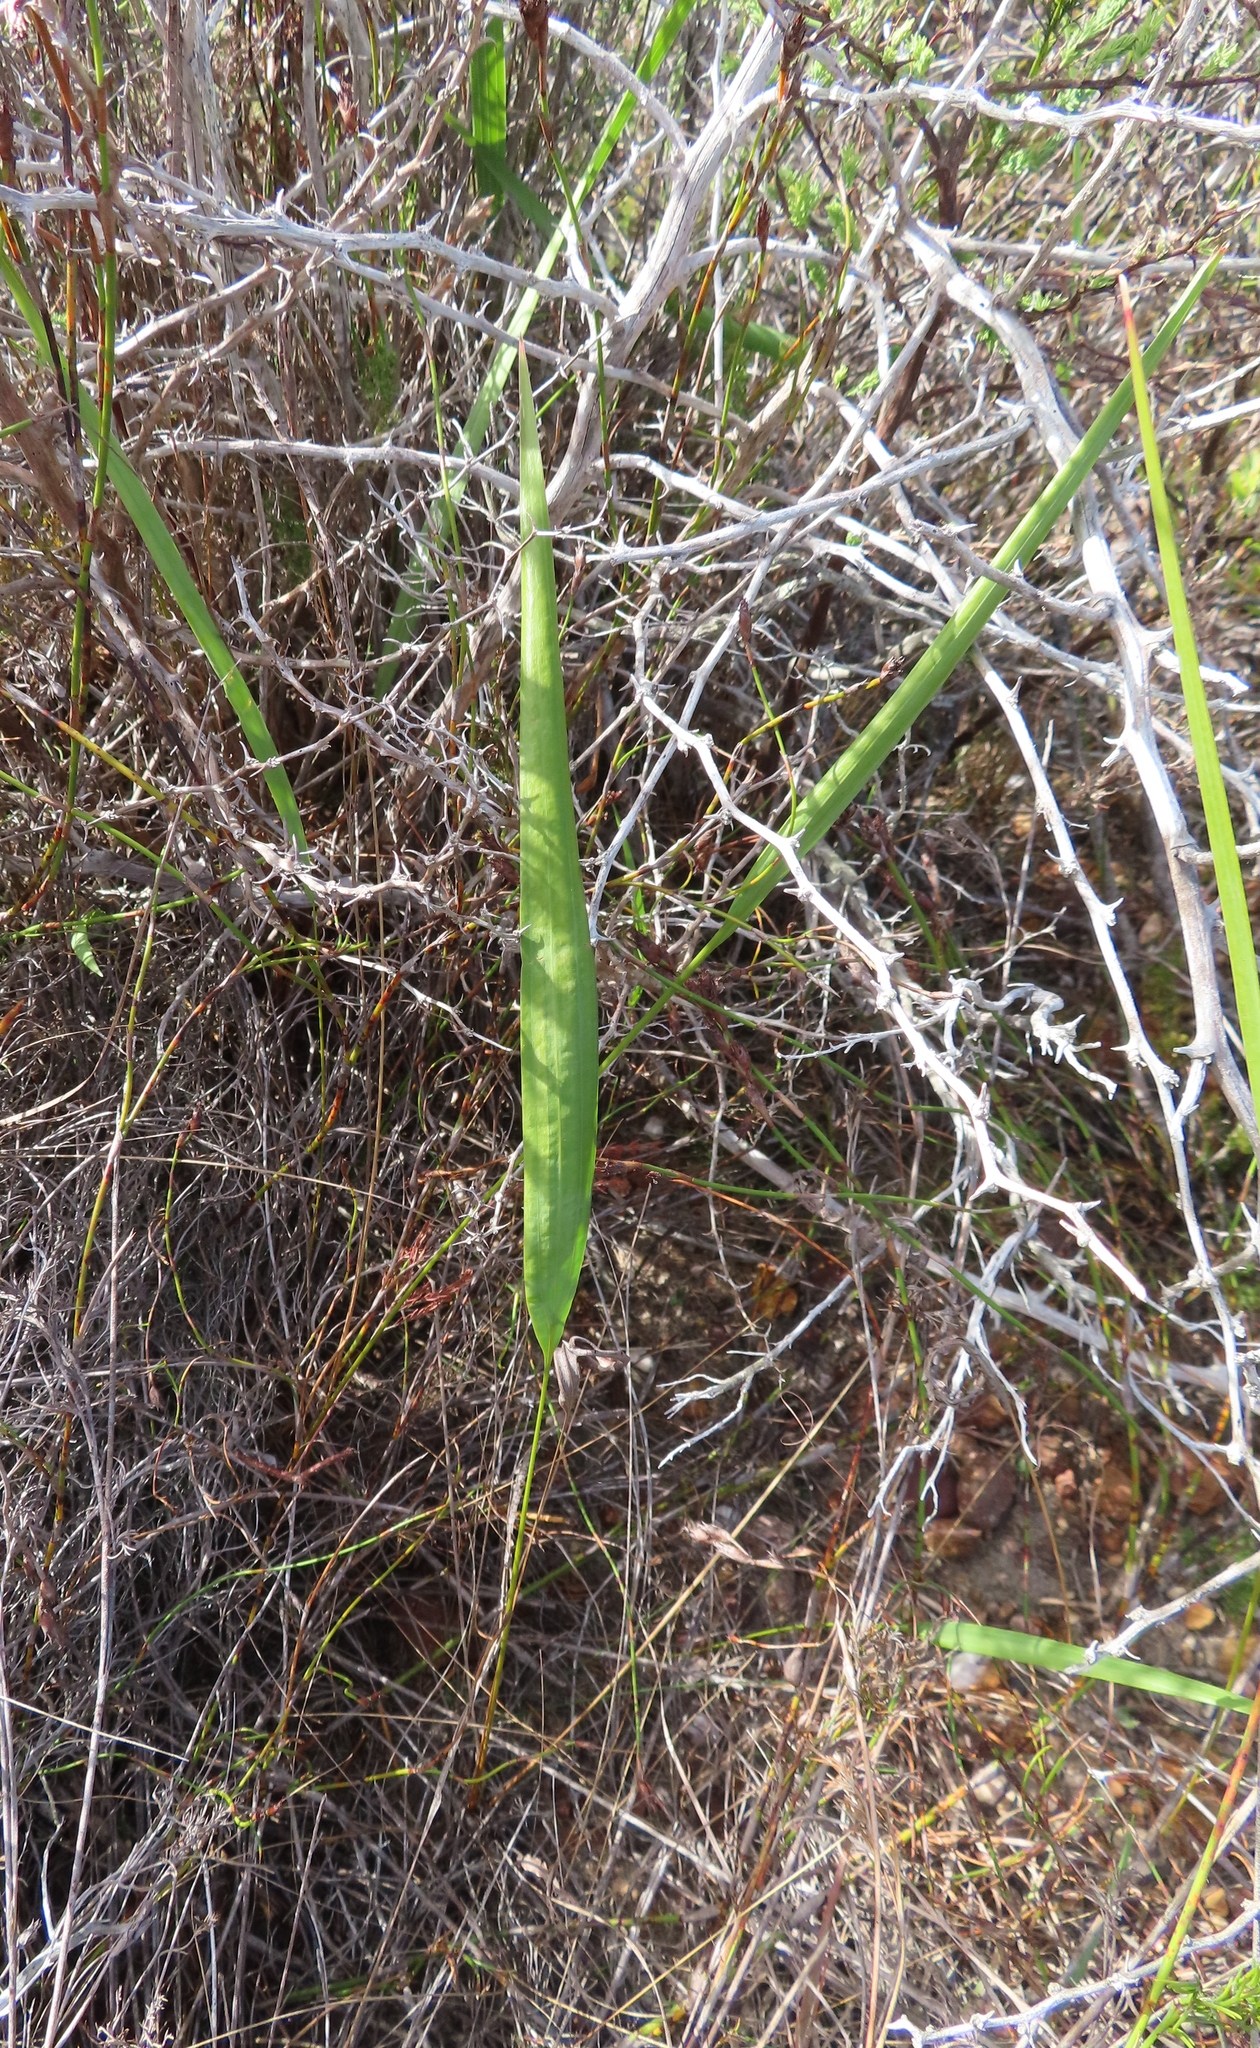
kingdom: Plantae
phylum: Tracheophyta
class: Liliopsida
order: Asparagales
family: Iridaceae
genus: Tritoniopsis
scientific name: Tritoniopsis parviflora
